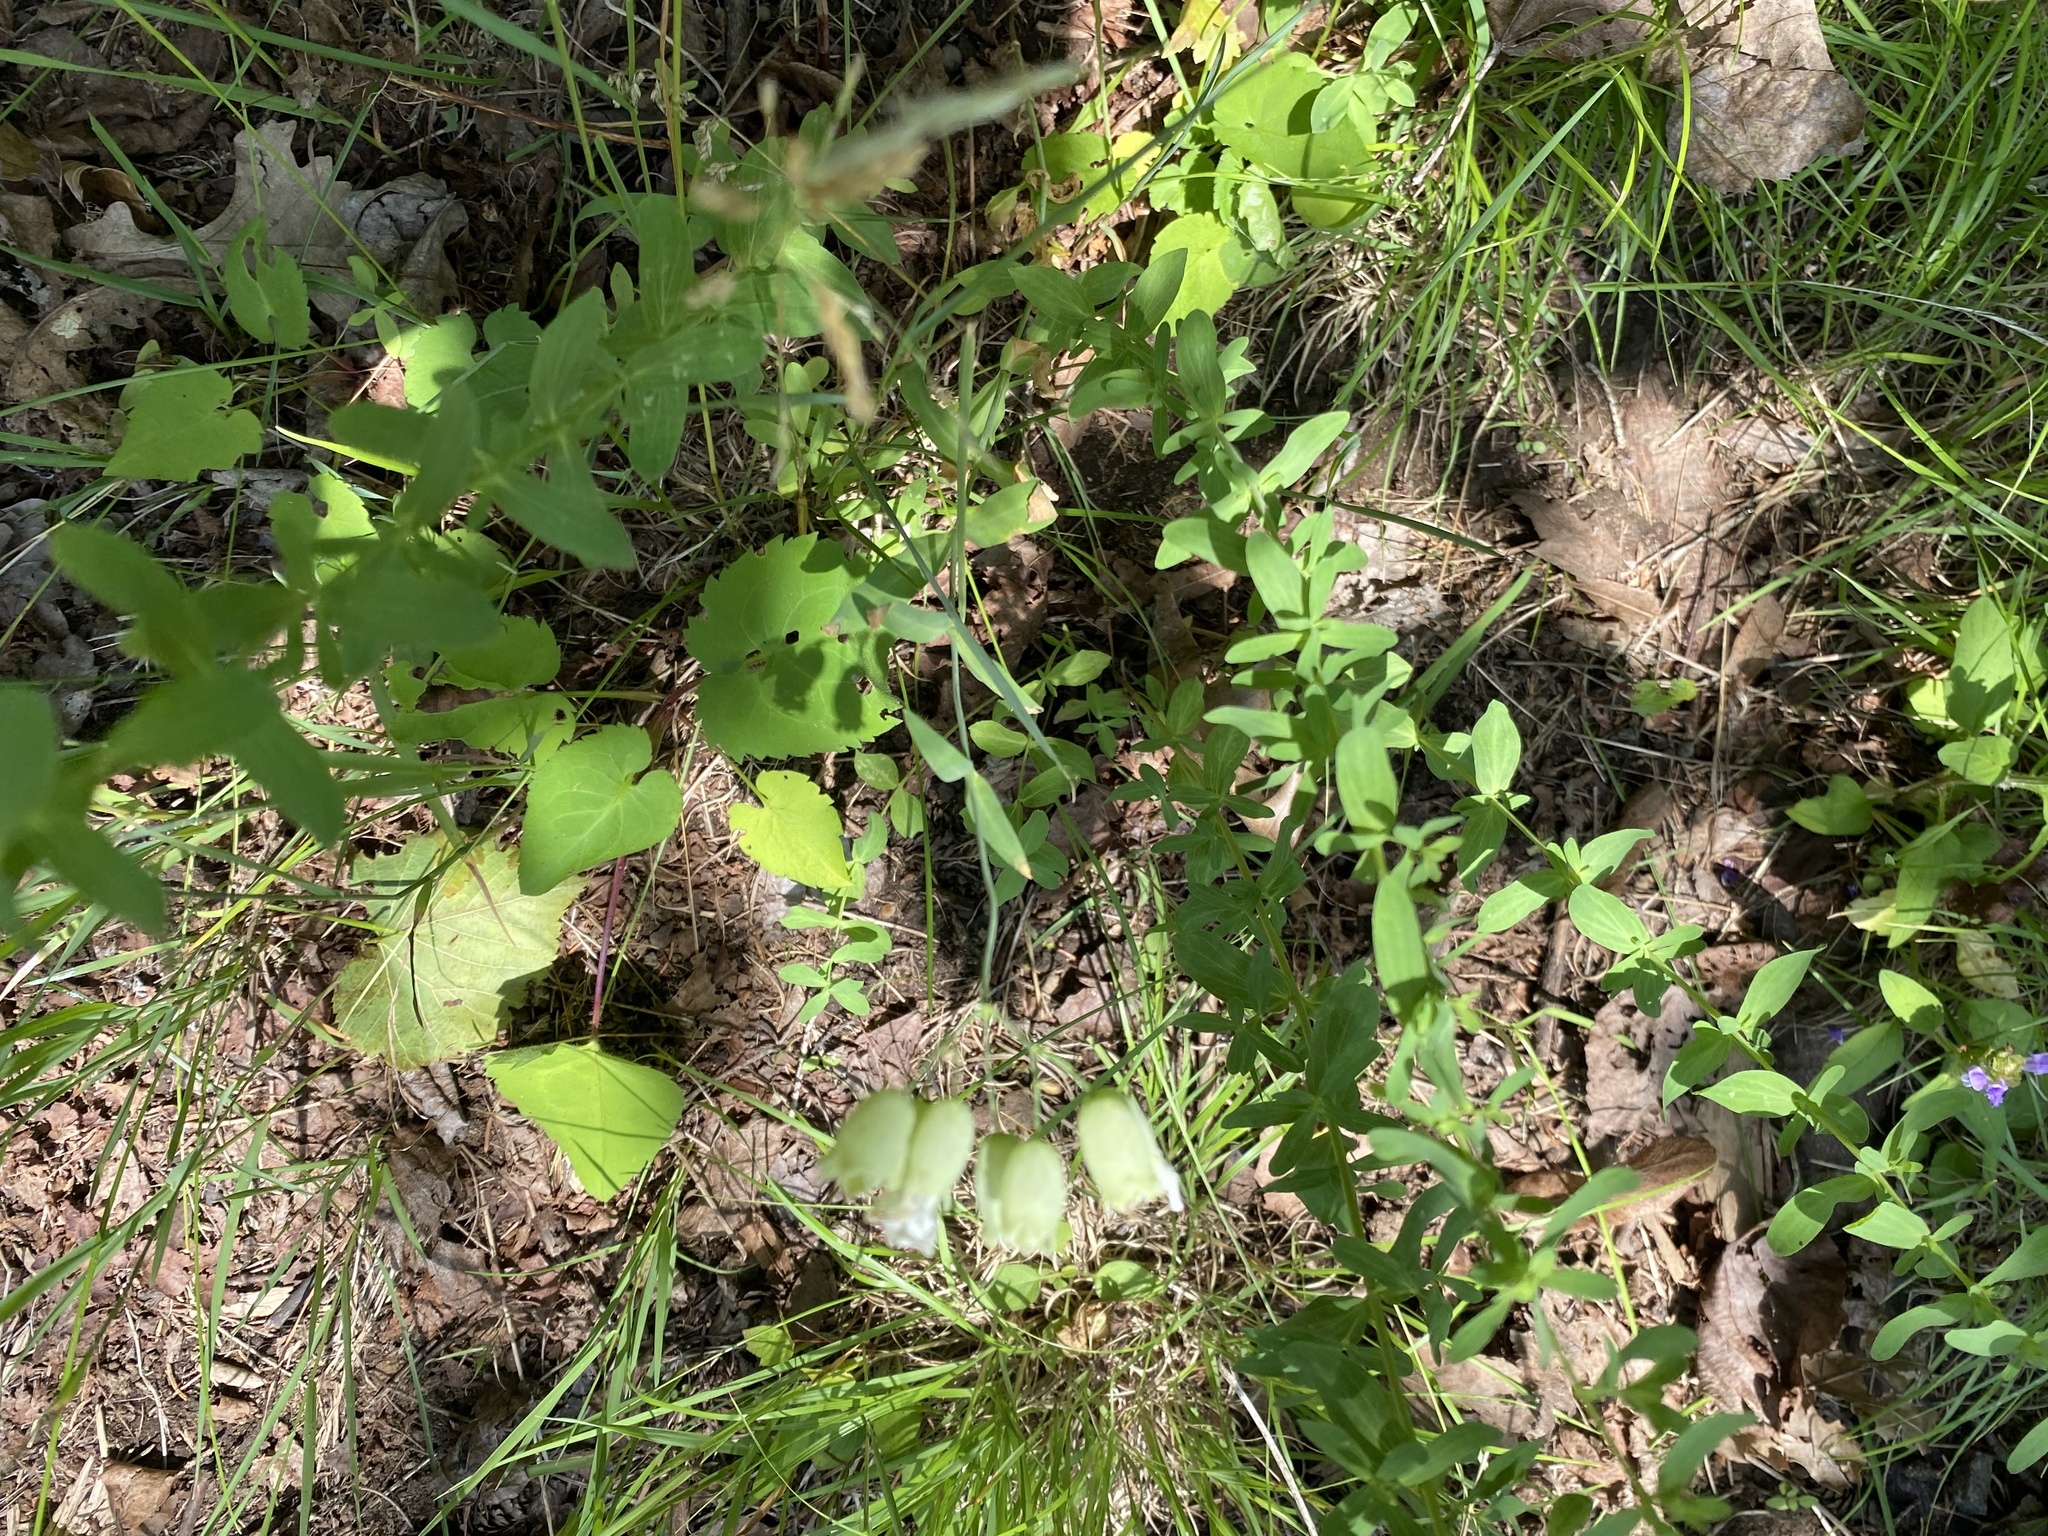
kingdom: Plantae
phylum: Tracheophyta
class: Magnoliopsida
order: Caryophyllales
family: Caryophyllaceae
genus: Silene
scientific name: Silene vulgaris
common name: Bladder campion
